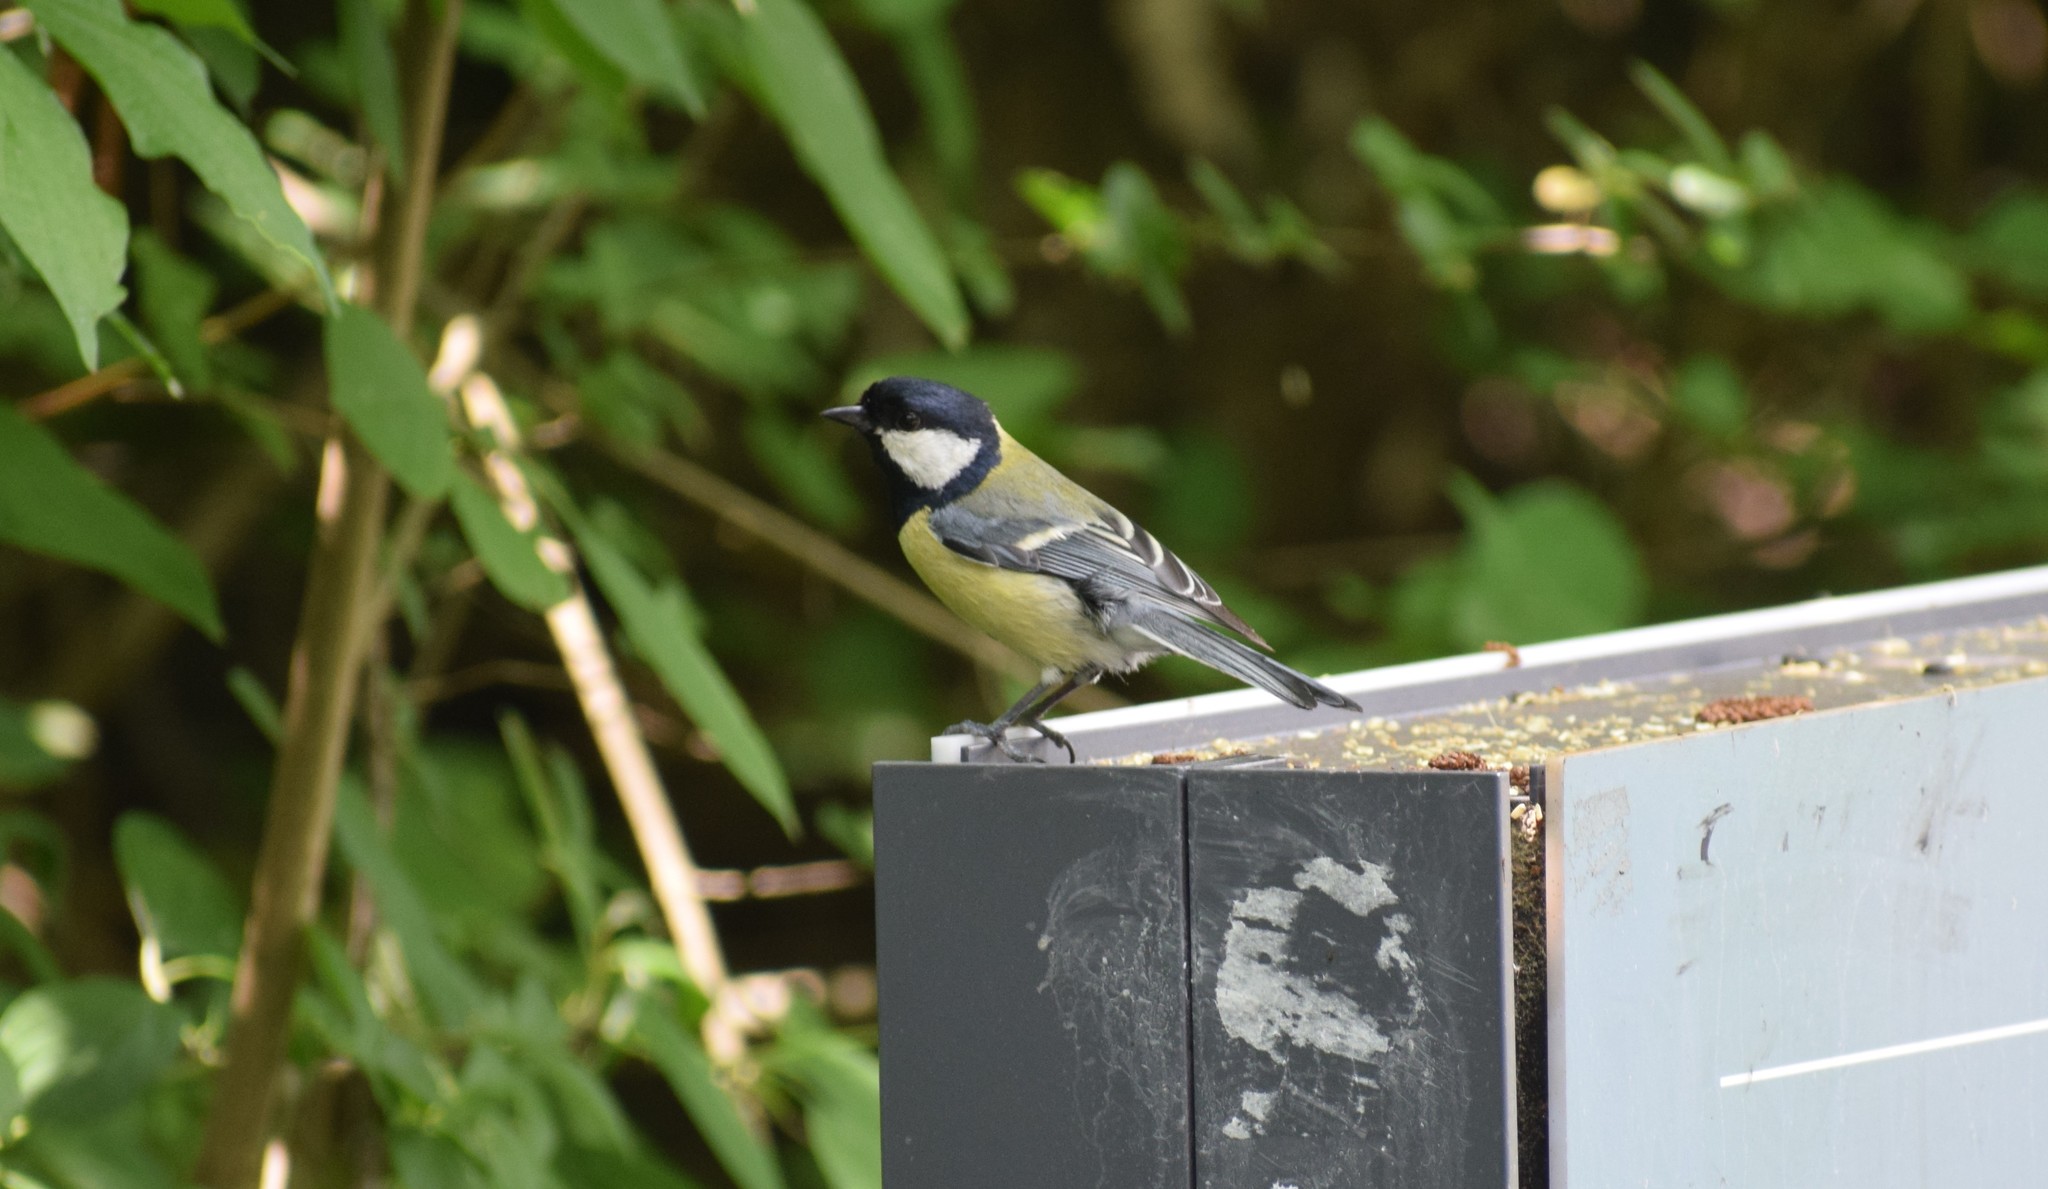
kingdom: Animalia
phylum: Chordata
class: Aves
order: Passeriformes
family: Paridae
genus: Parus
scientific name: Parus major
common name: Great tit
